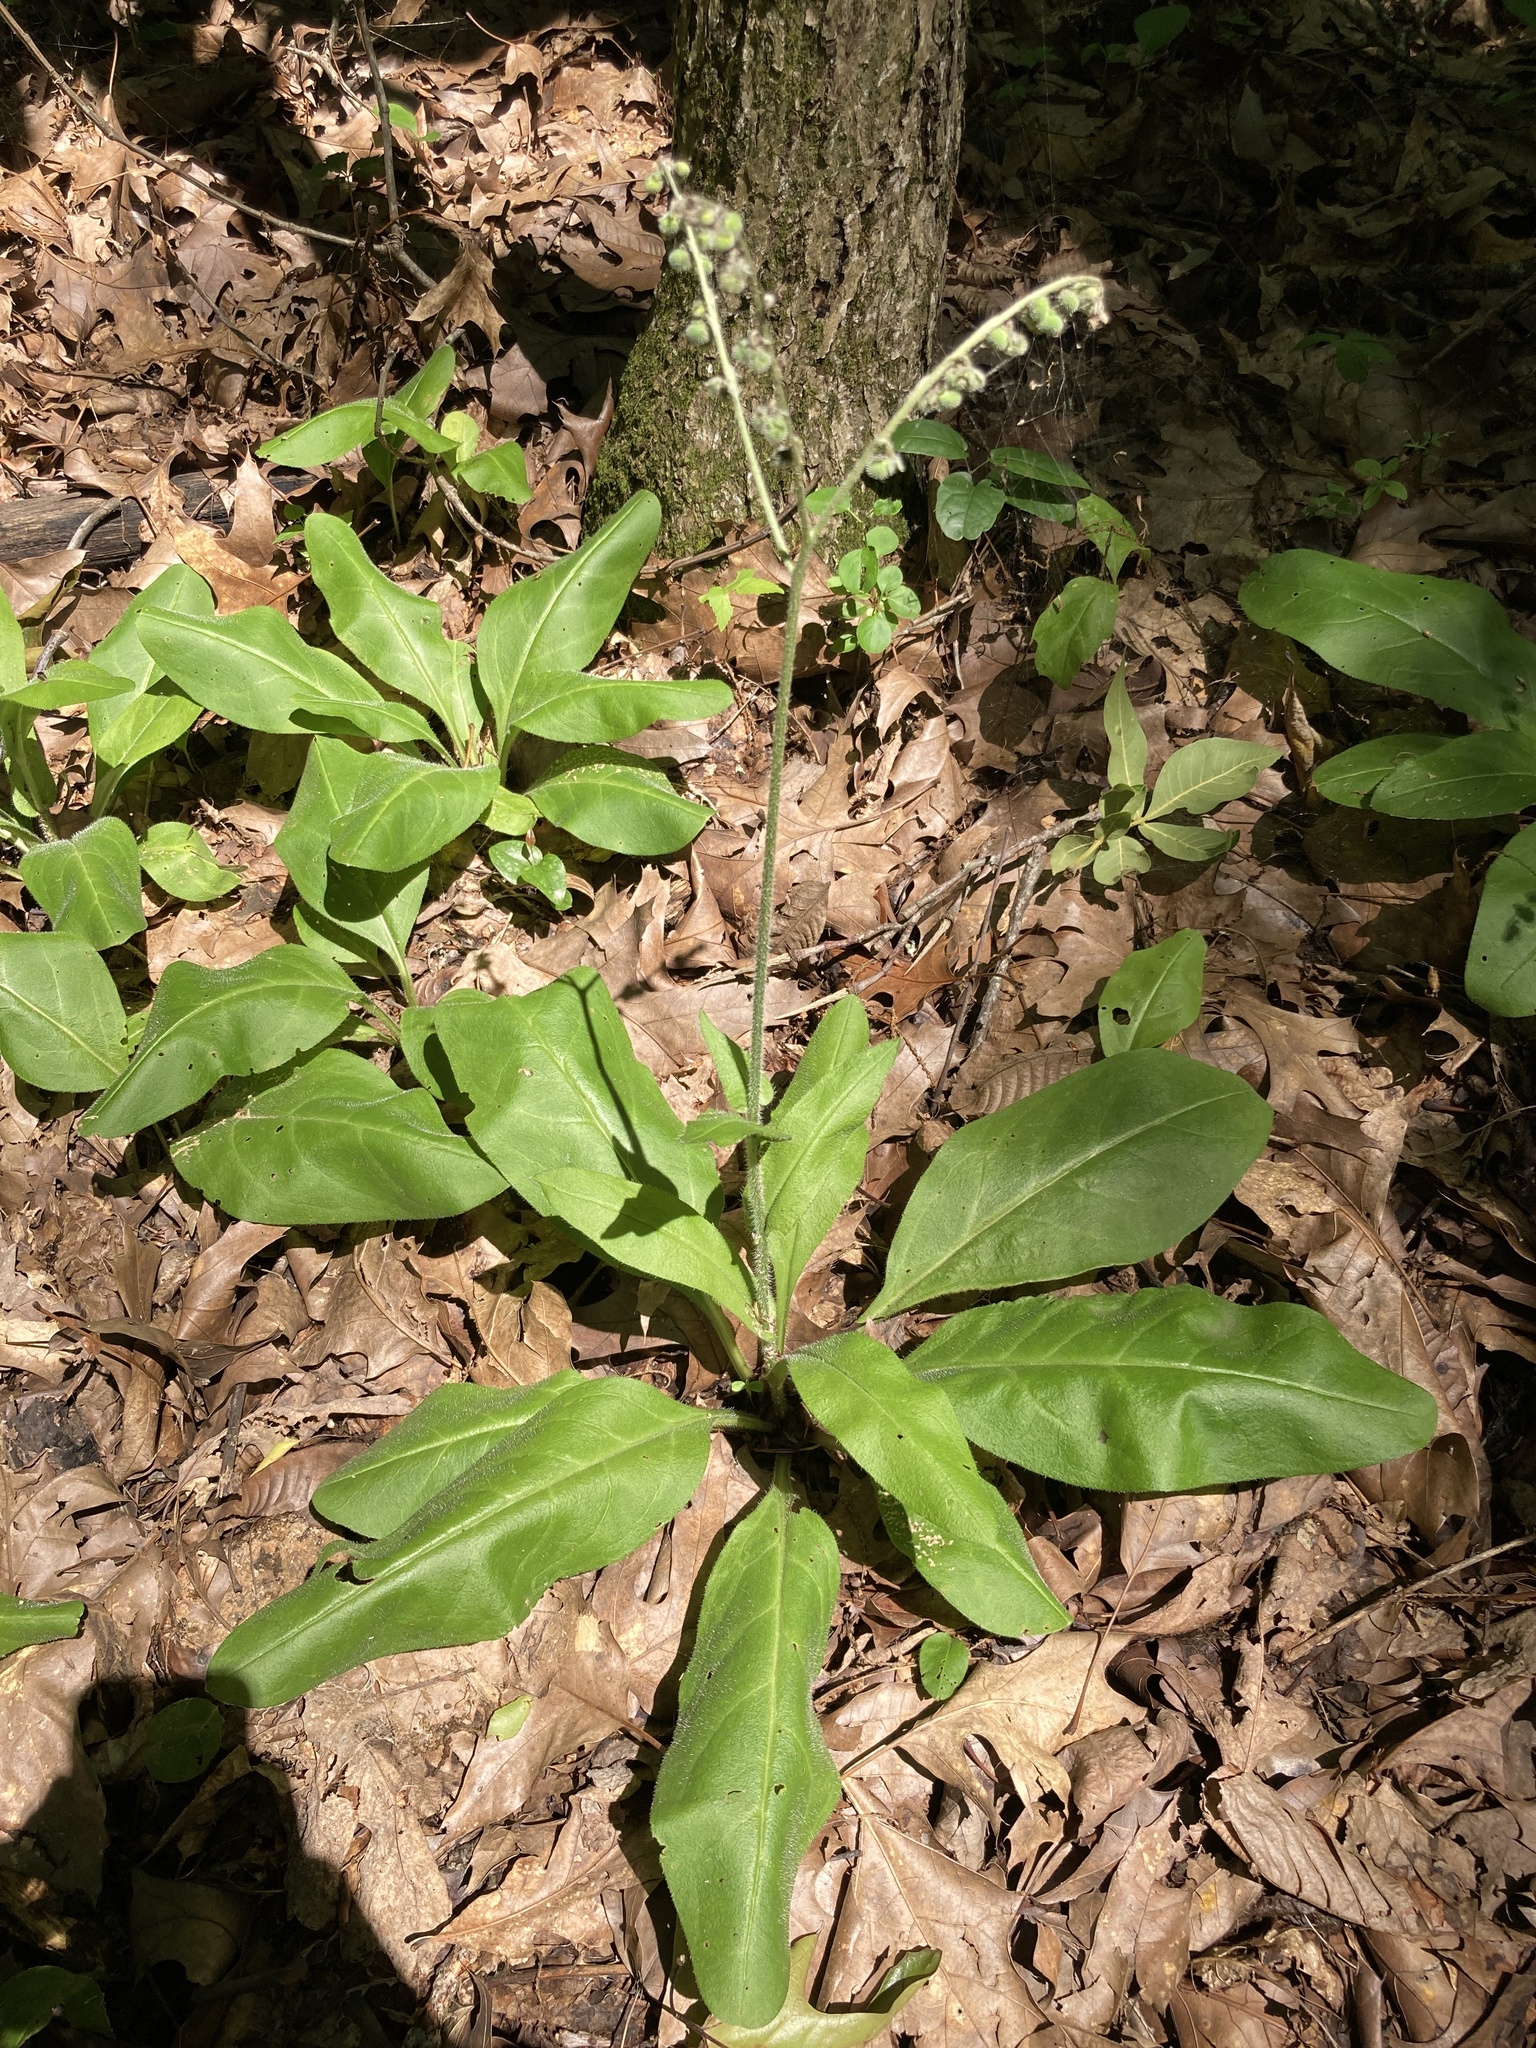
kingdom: Plantae
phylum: Tracheophyta
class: Magnoliopsida
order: Boraginales
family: Boraginaceae
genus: Andersonglossum
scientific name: Andersonglossum virginianum
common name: Wild comfrey
